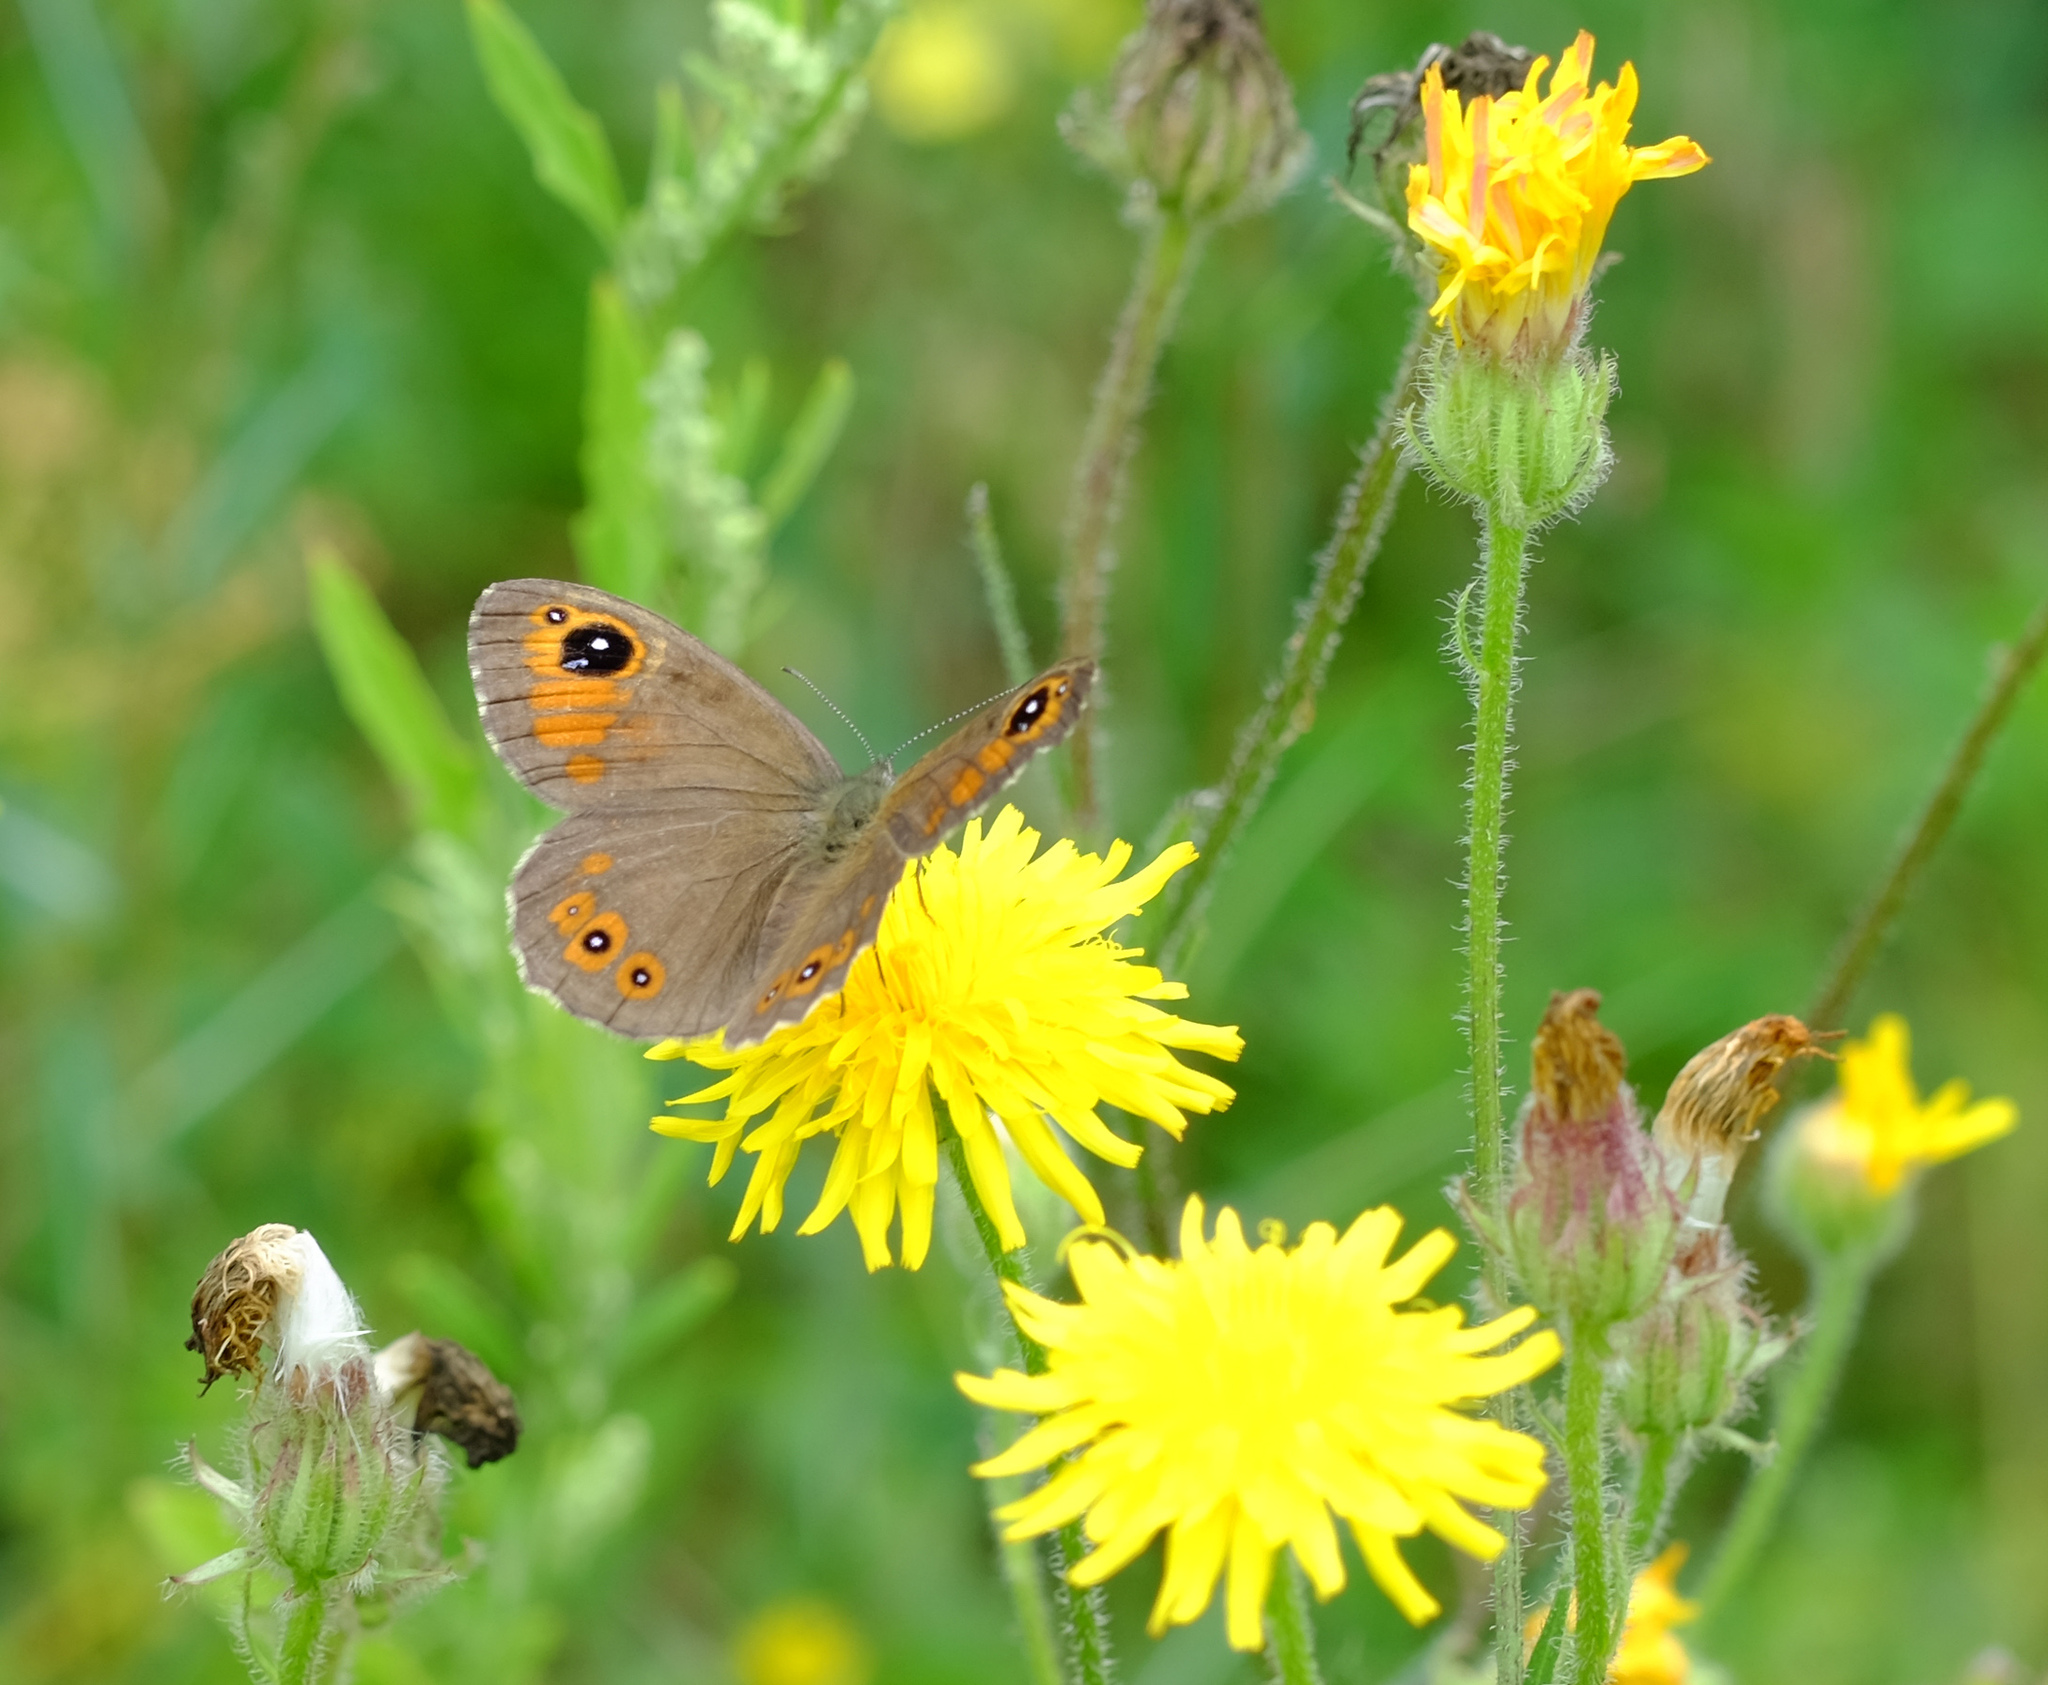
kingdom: Animalia
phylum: Arthropoda
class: Insecta
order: Lepidoptera
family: Nymphalidae
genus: Pararge
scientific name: Pararge Lasiommata maera
